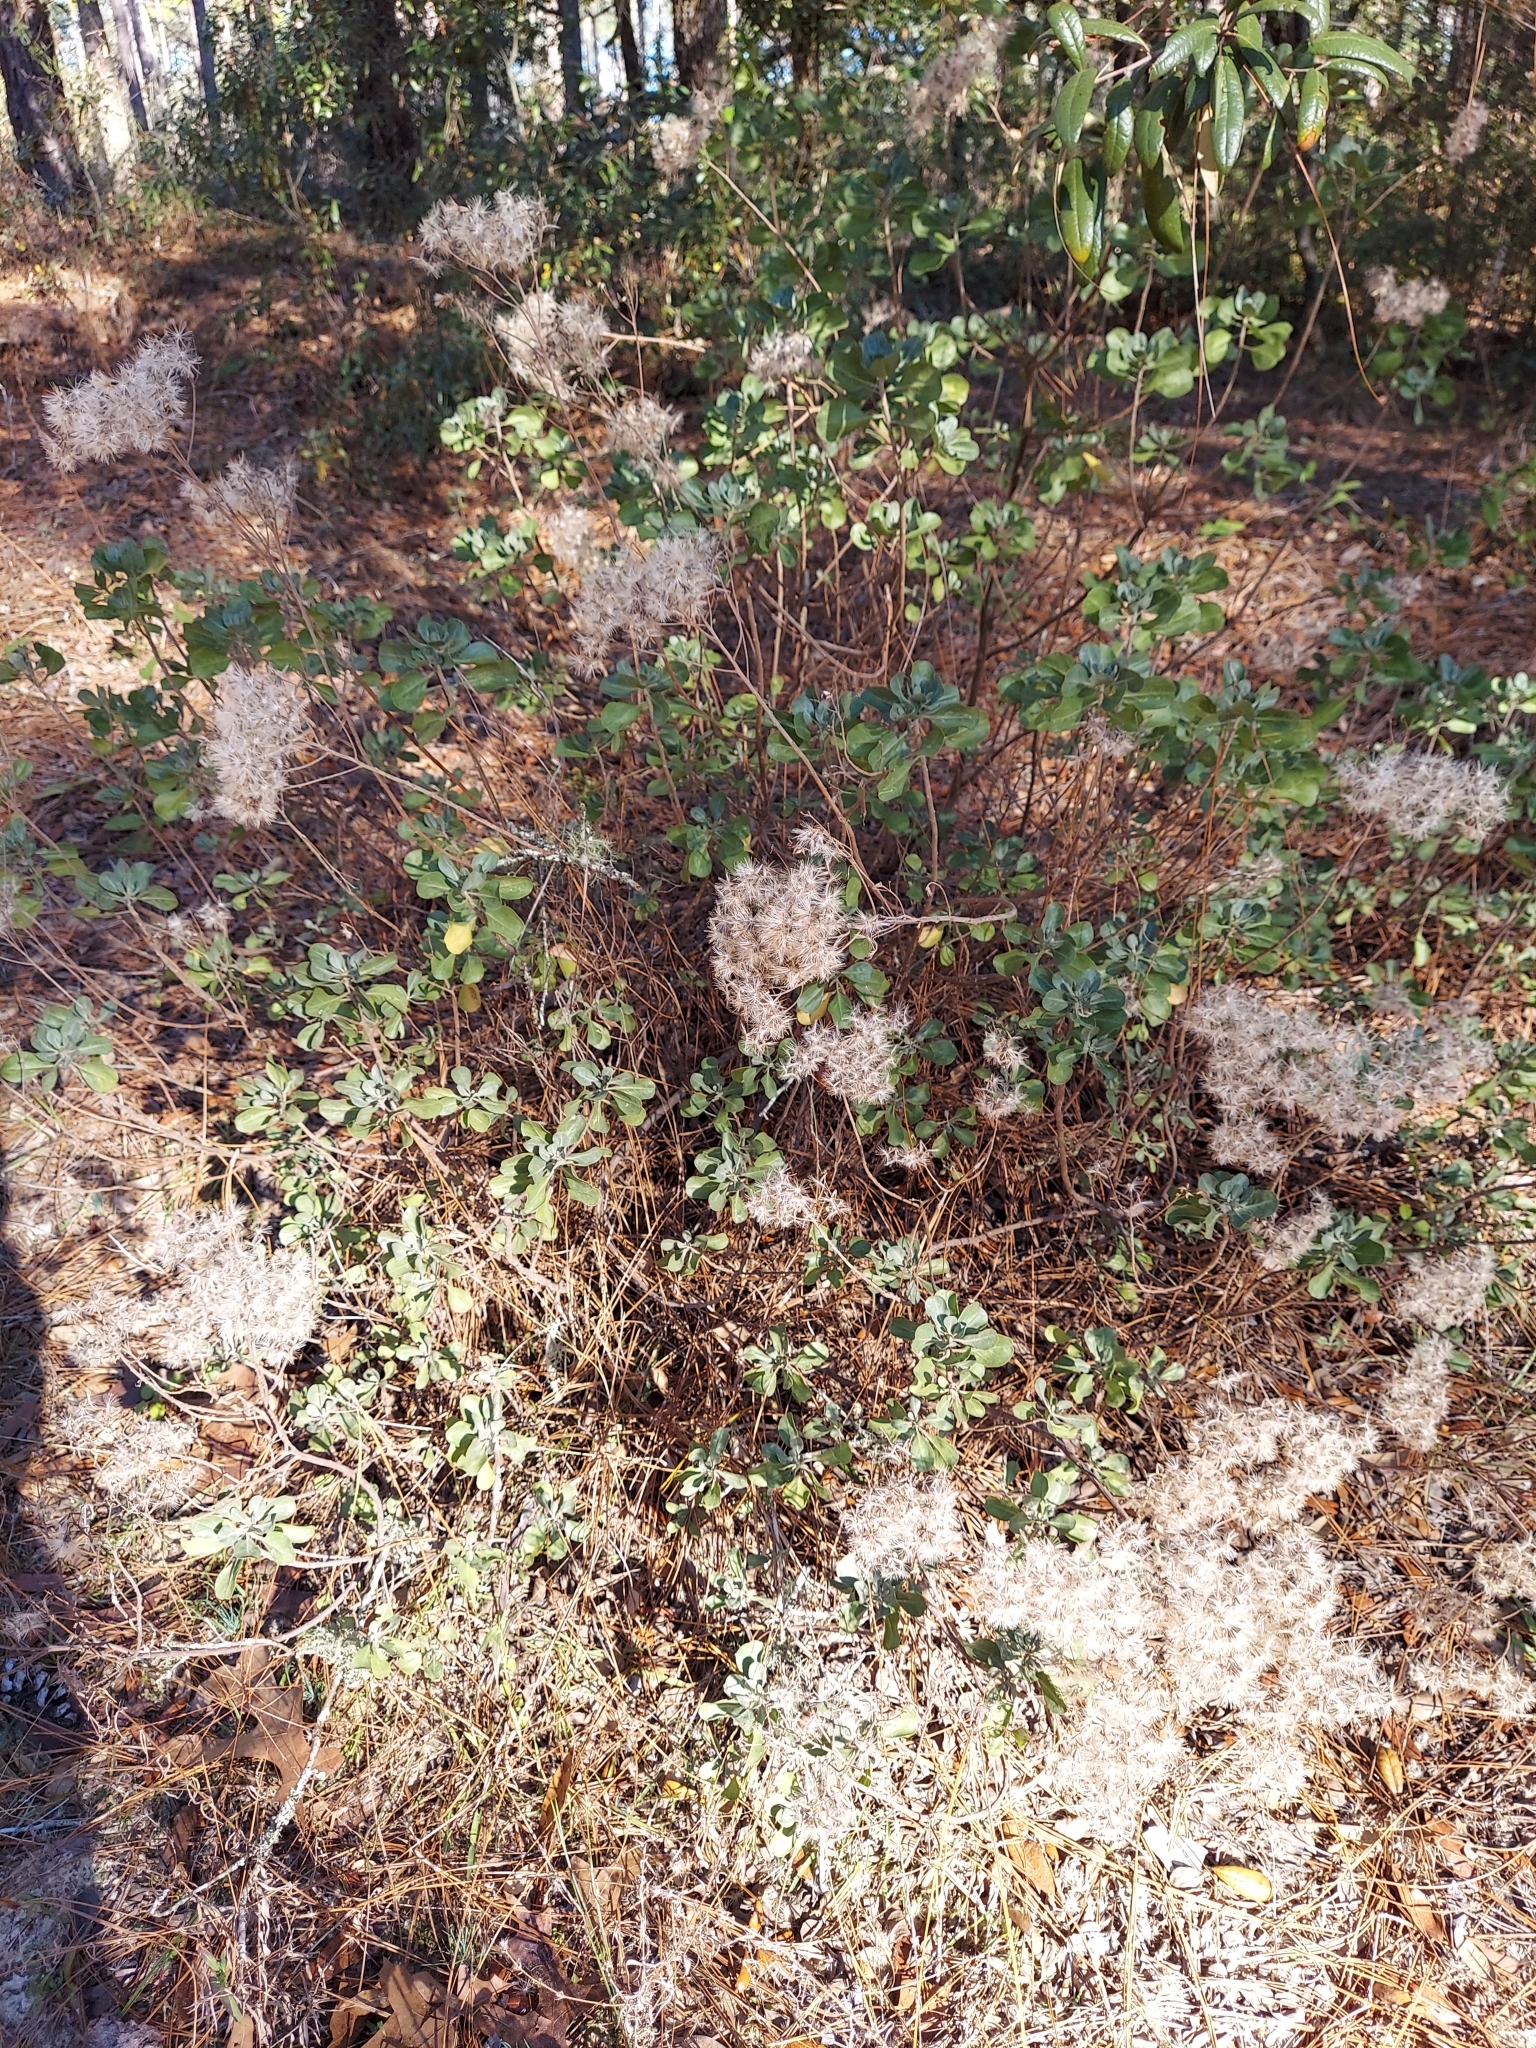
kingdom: Plantae
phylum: Tracheophyta
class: Magnoliopsida
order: Asterales
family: Asteraceae
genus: Garberia
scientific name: Garberia heterophylla
